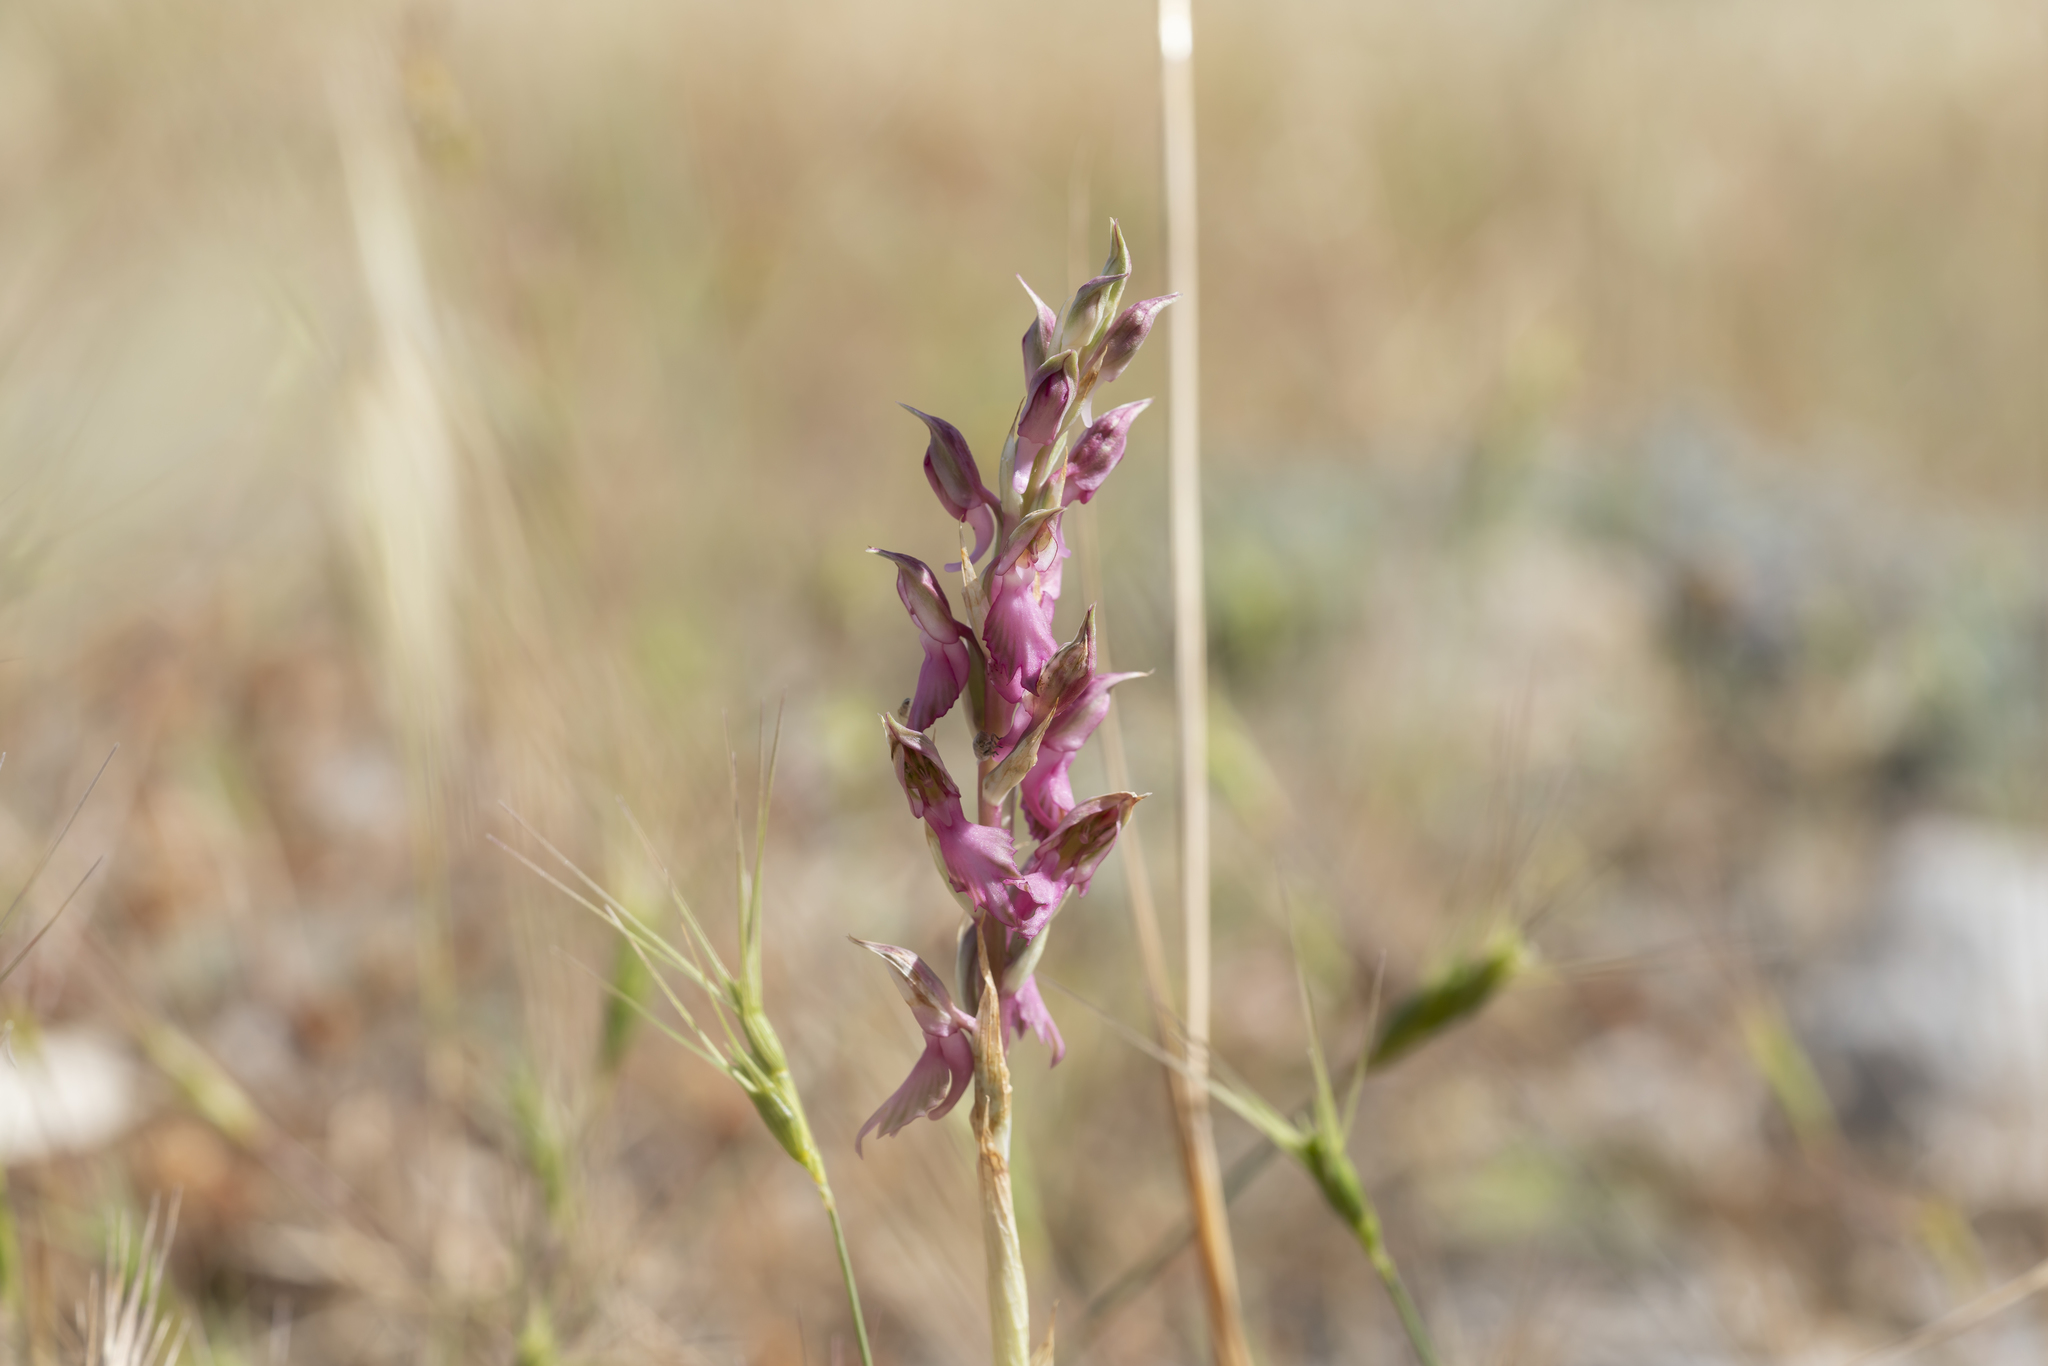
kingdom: Plantae
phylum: Tracheophyta
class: Liliopsida
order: Asparagales
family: Orchidaceae
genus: Anacamptis
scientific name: Anacamptis sancta
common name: Holy orchid
